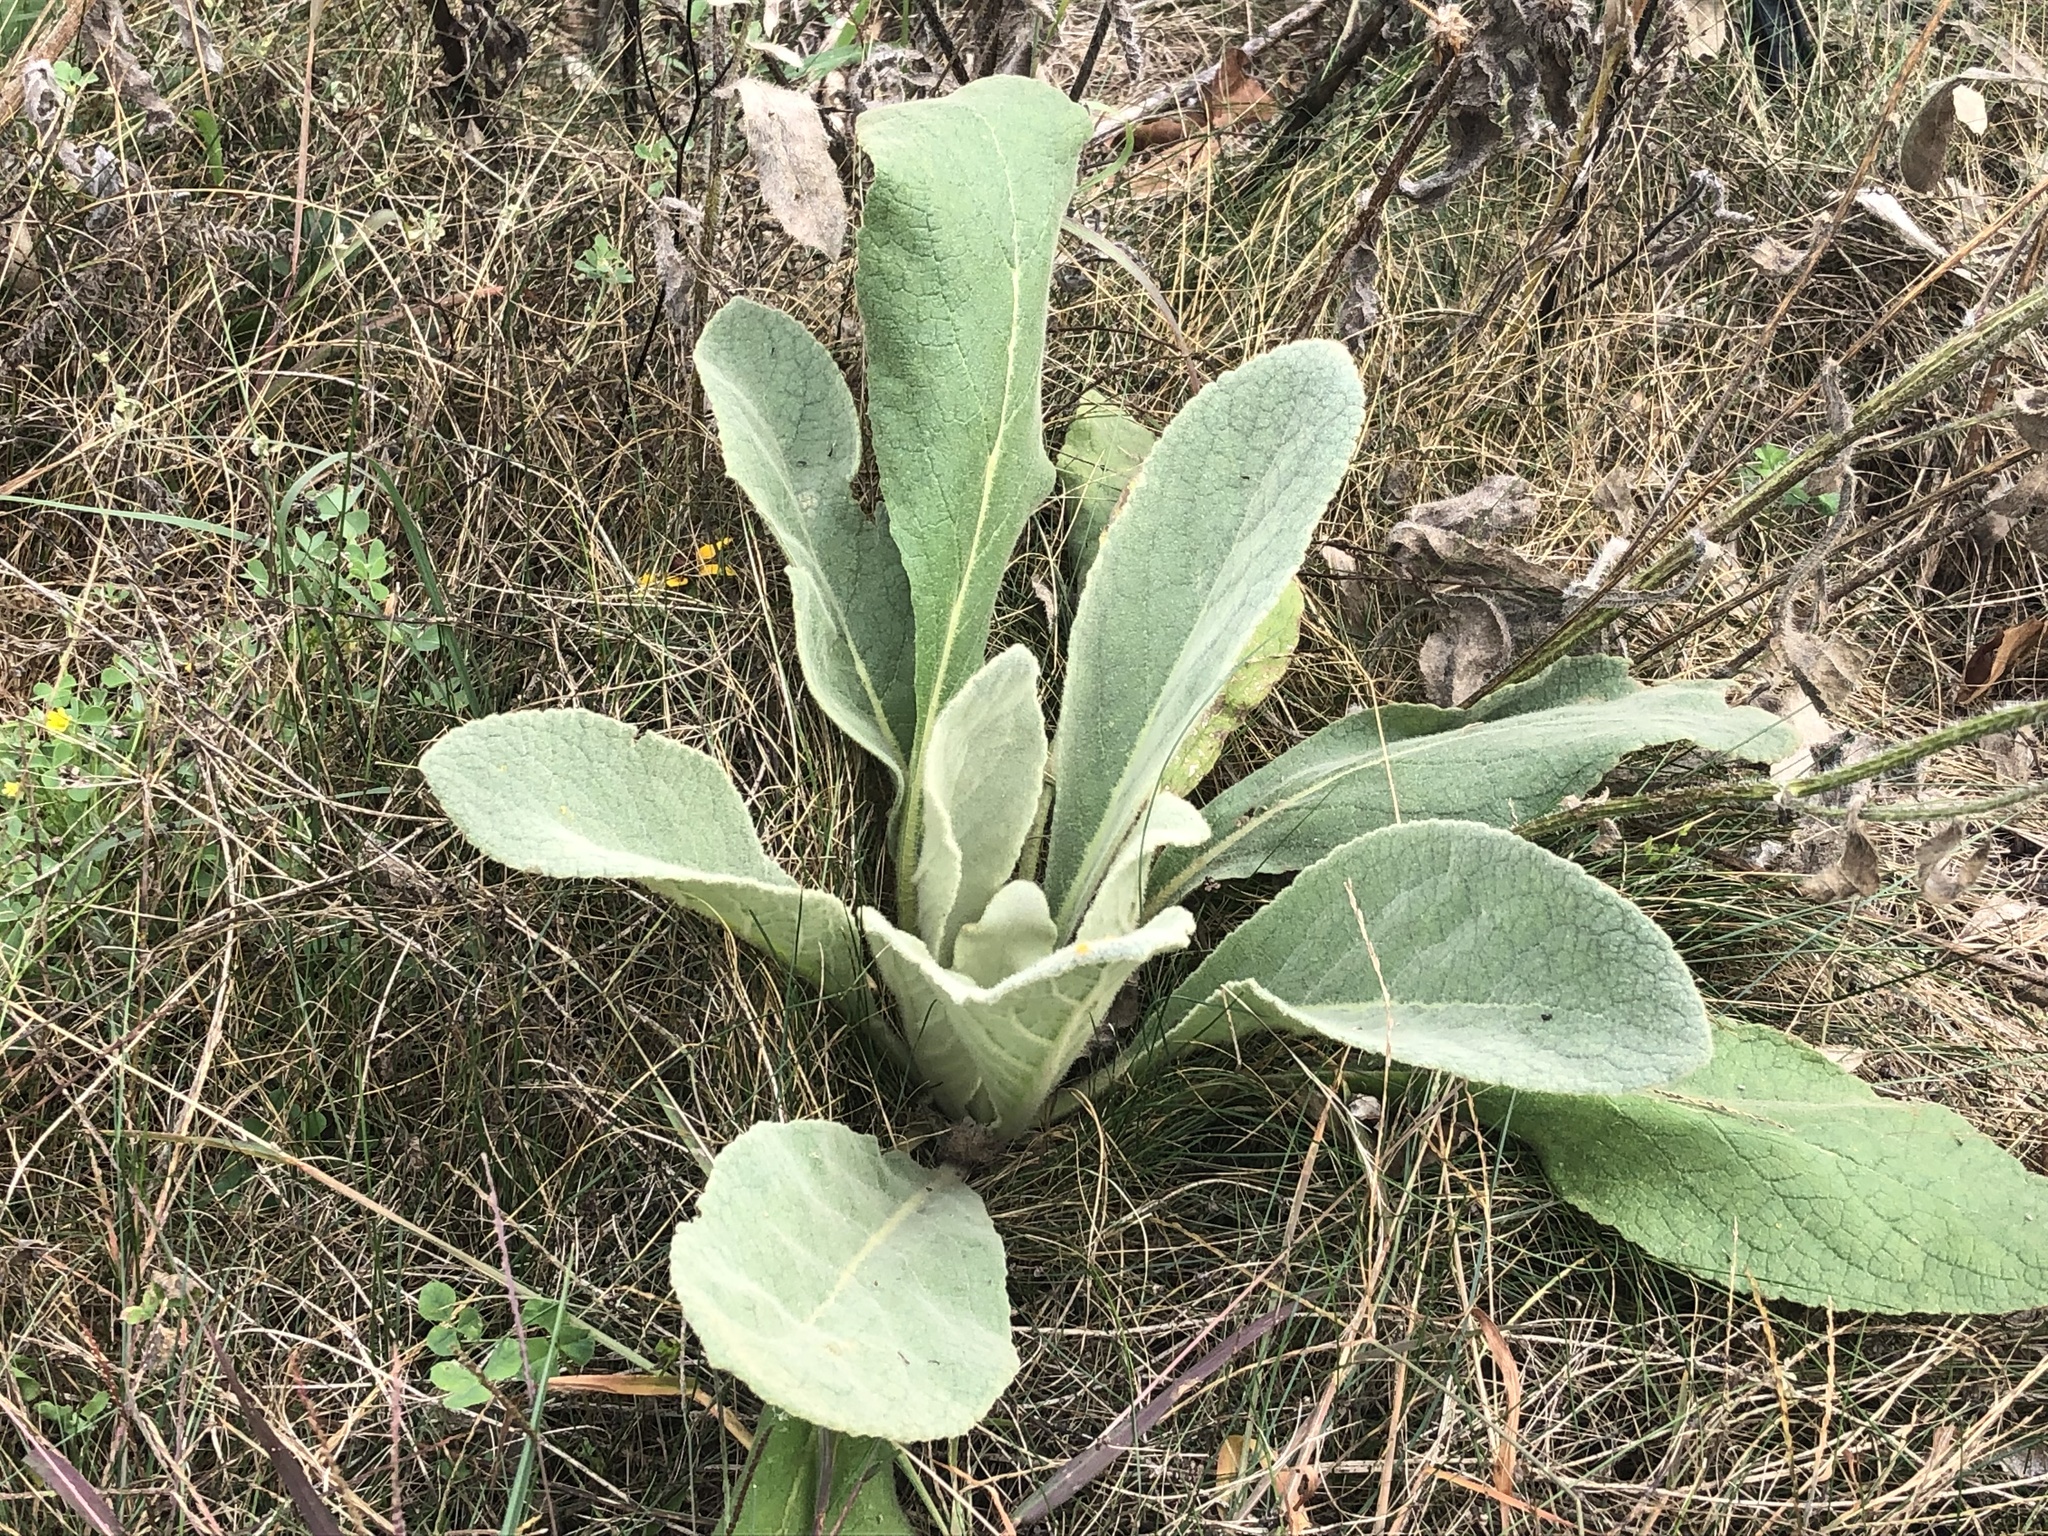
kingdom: Plantae
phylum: Tracheophyta
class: Magnoliopsida
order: Lamiales
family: Scrophulariaceae
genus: Verbascum
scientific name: Verbascum thapsus
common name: Common mullein
